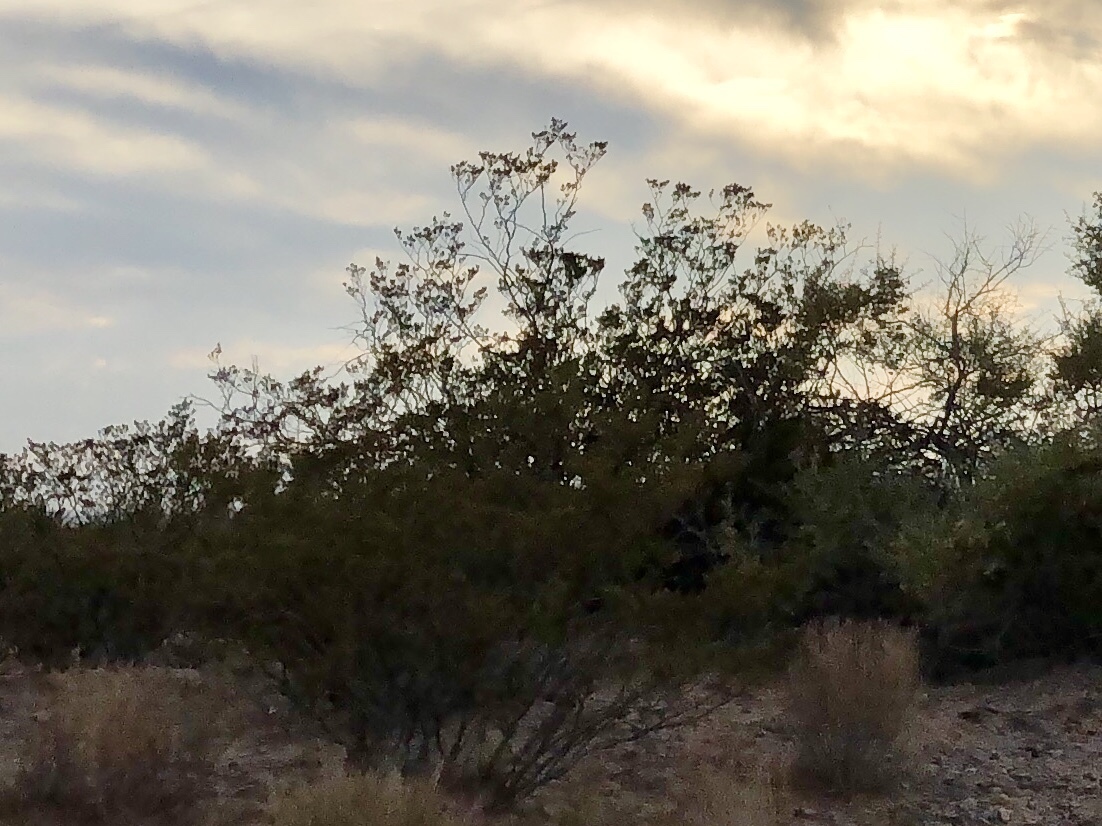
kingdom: Plantae
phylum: Tracheophyta
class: Magnoliopsida
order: Zygophyllales
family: Zygophyllaceae
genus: Larrea
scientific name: Larrea tridentata
